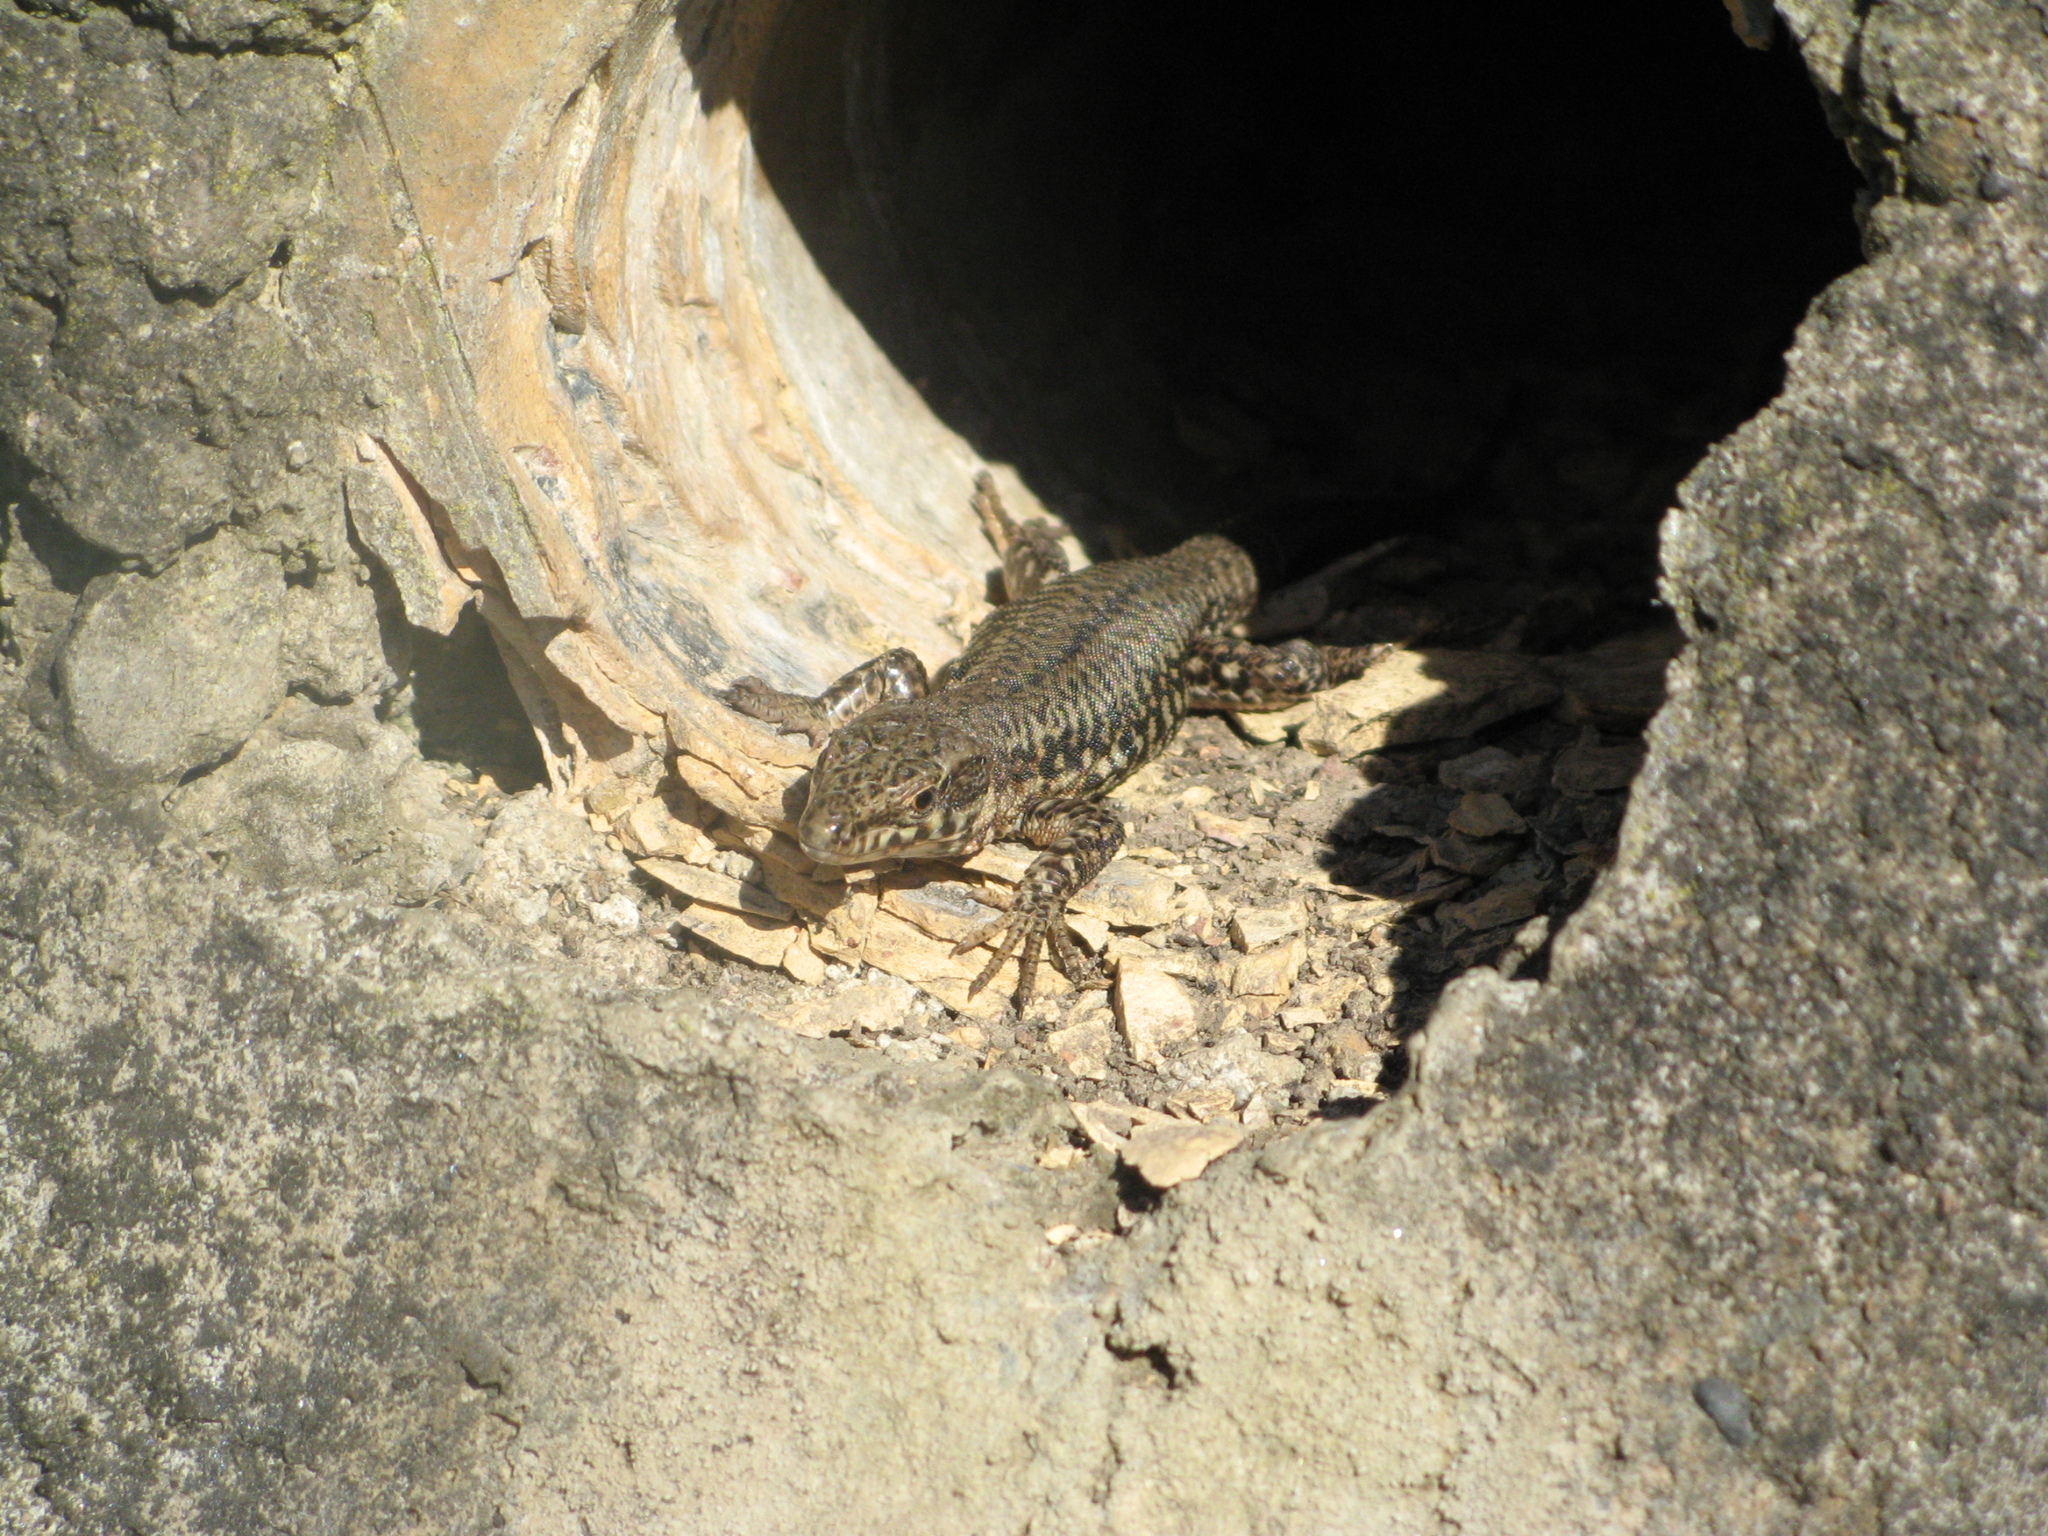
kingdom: Animalia
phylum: Chordata
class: Squamata
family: Lacertidae
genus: Podarcis
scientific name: Podarcis muralis
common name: Common wall lizard
